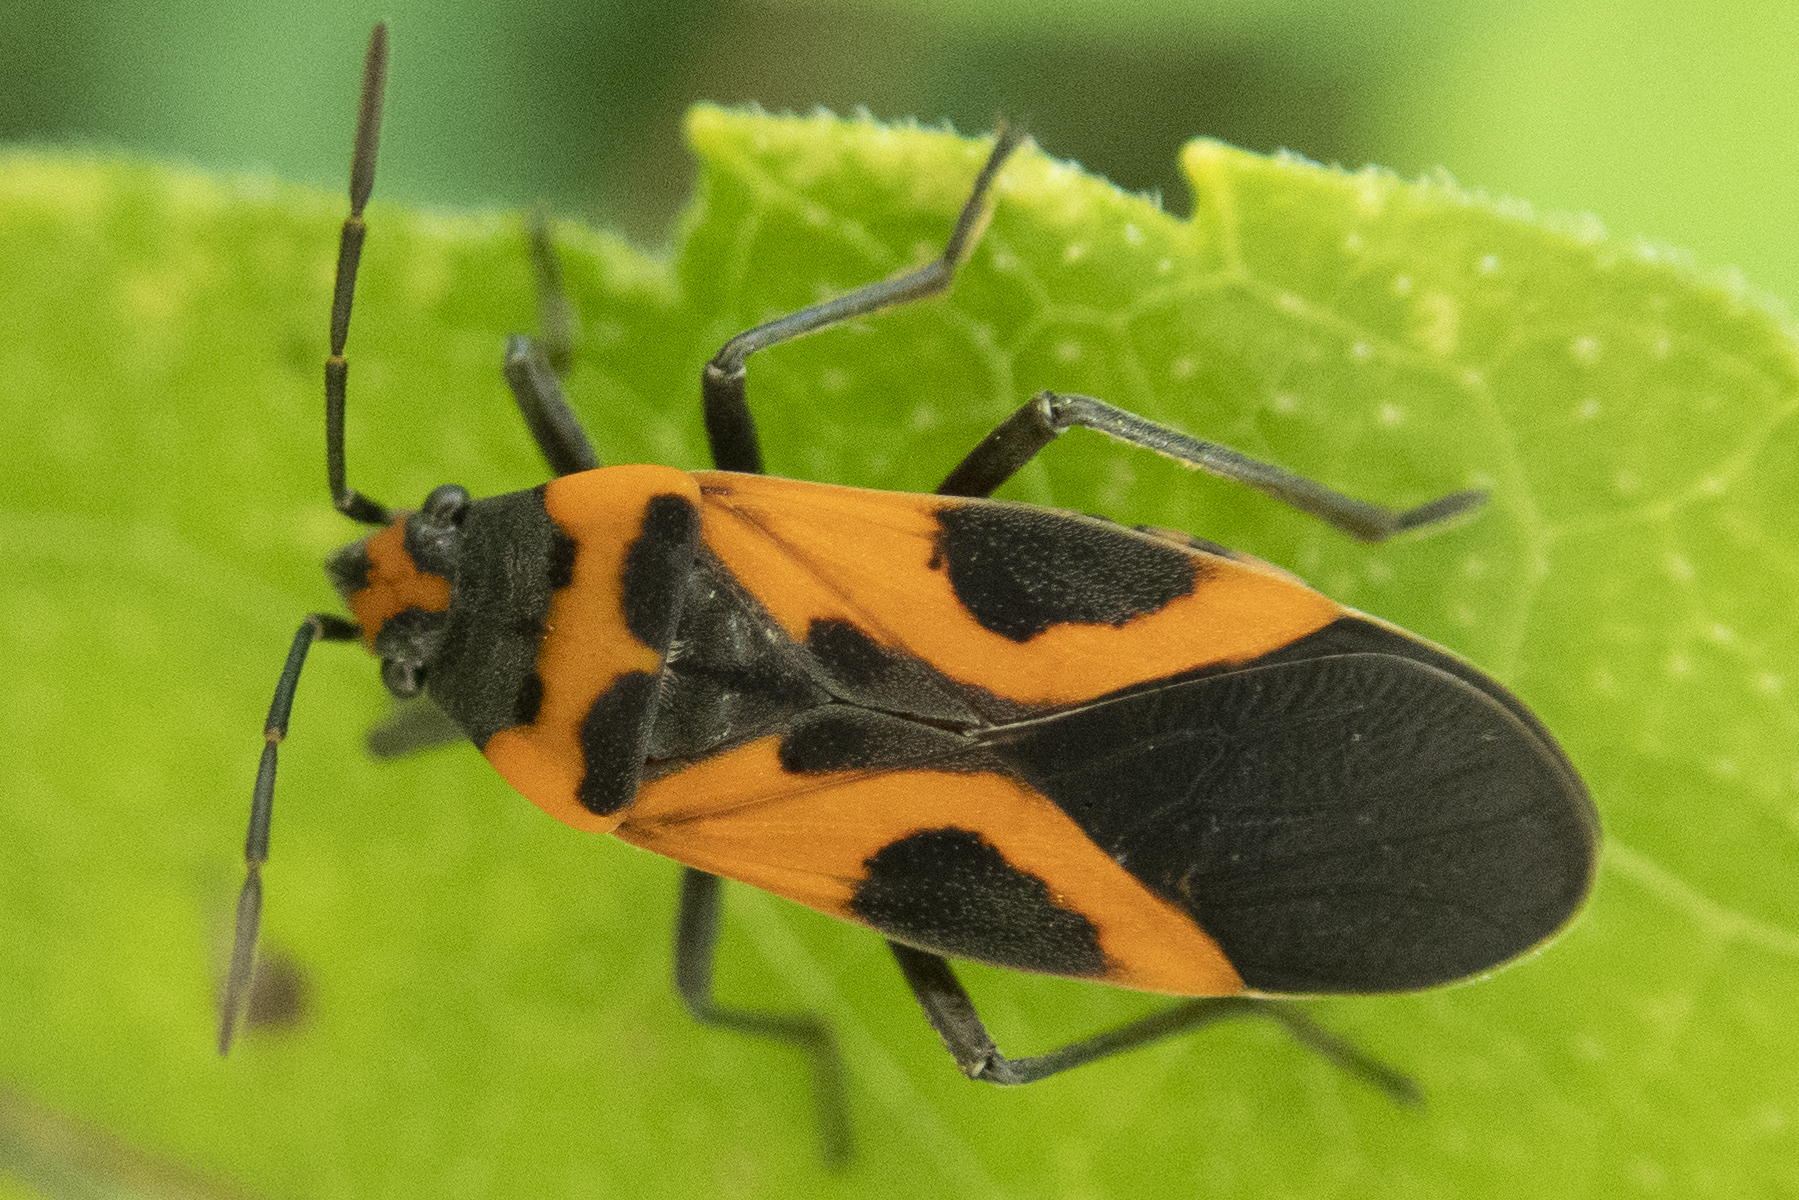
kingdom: Animalia
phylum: Arthropoda
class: Insecta
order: Hemiptera
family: Lygaeidae
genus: Lygaeus
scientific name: Lygaeus turcicus
